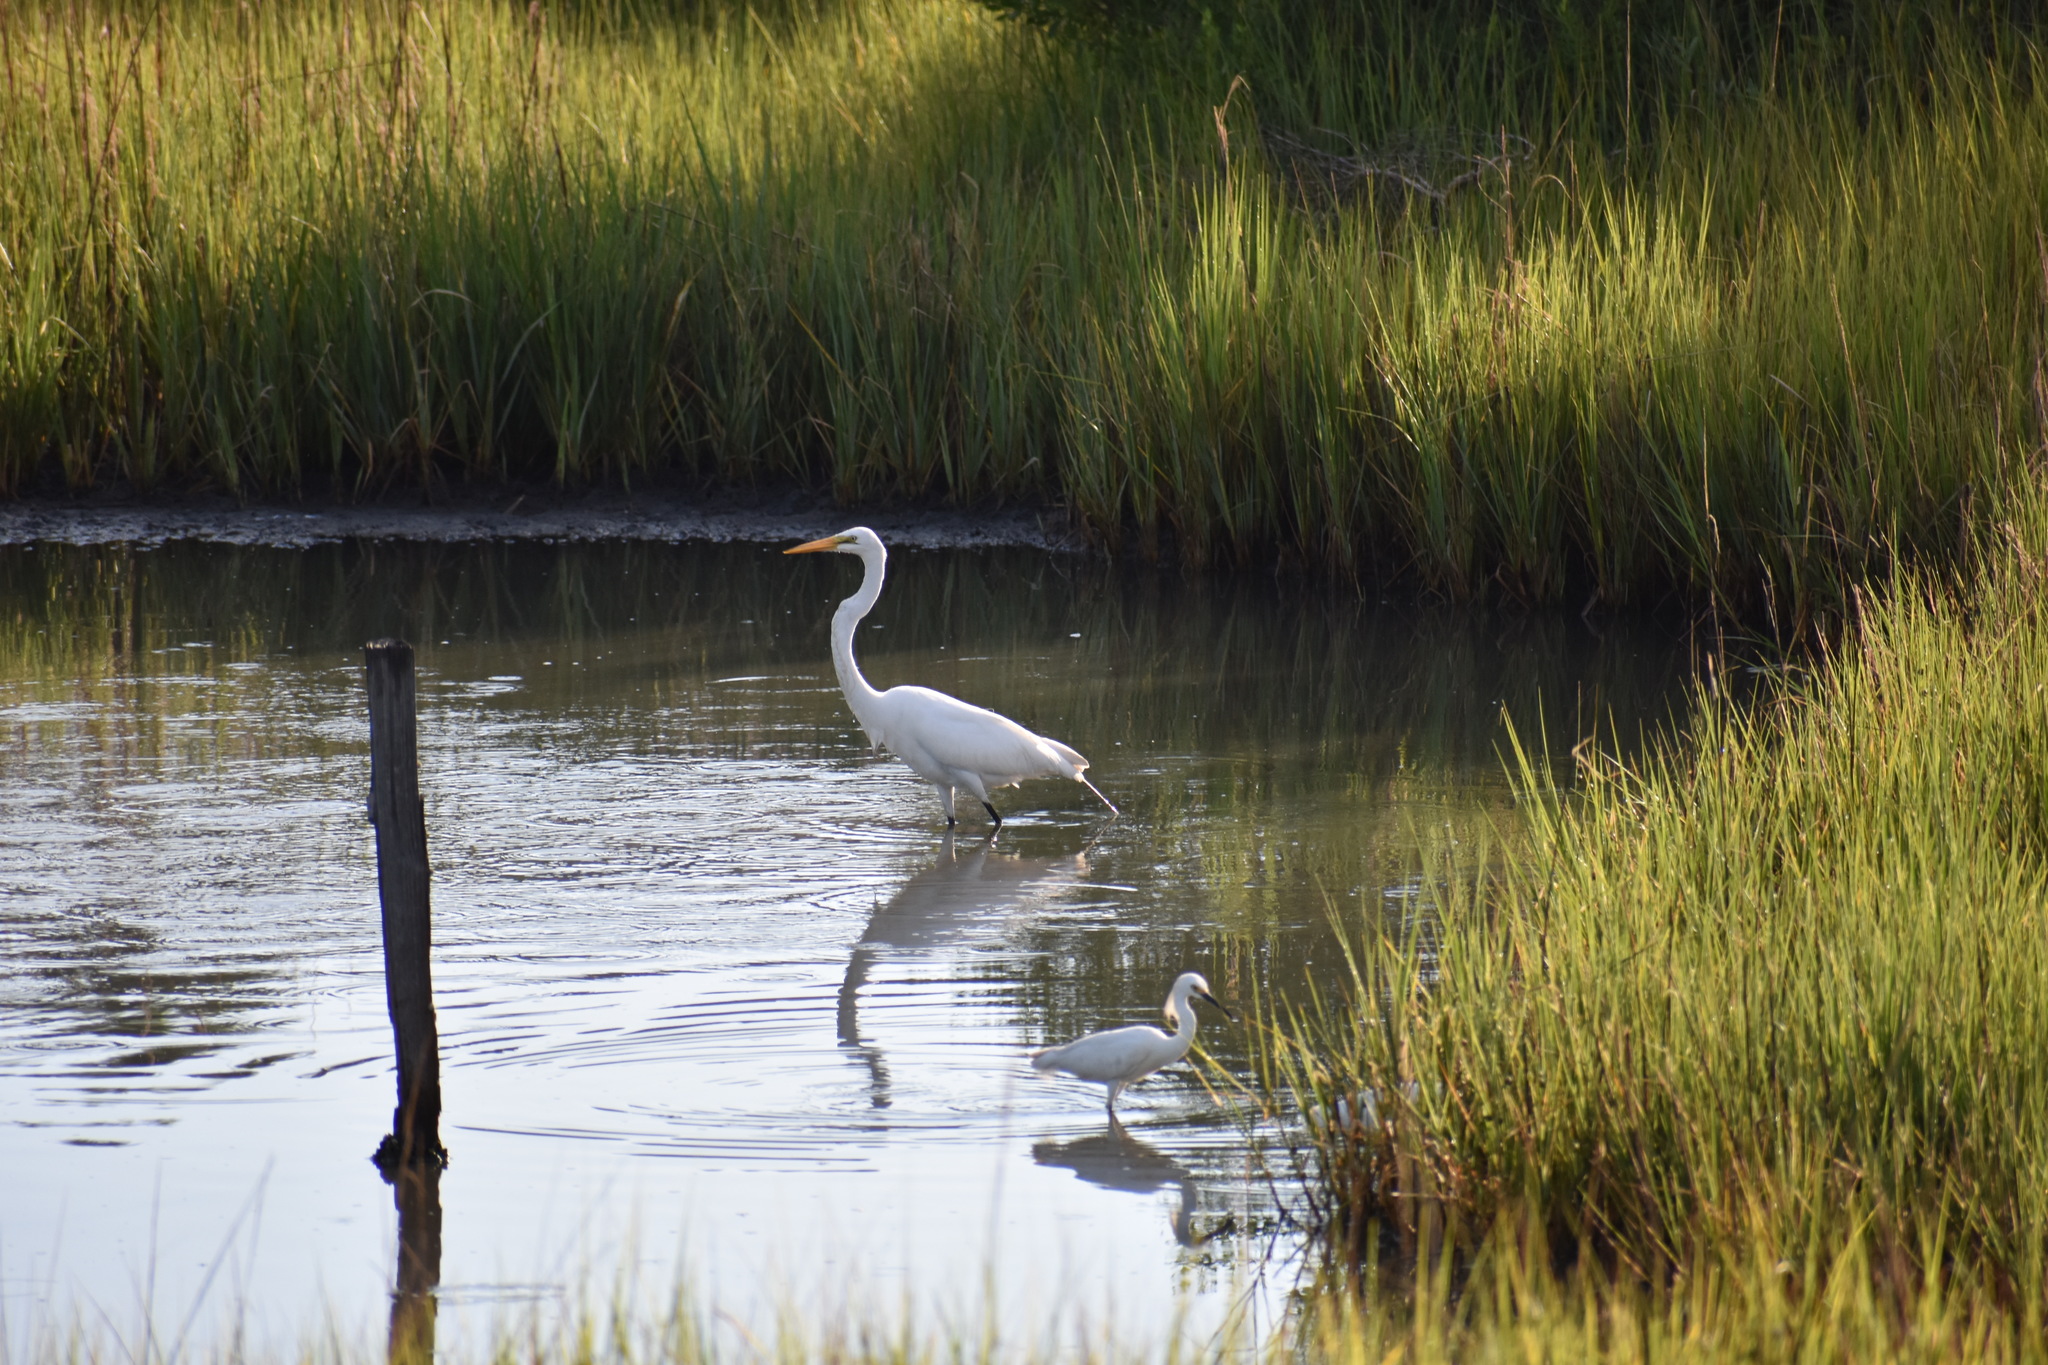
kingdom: Animalia
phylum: Chordata
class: Aves
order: Pelecaniformes
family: Ardeidae
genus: Egretta
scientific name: Egretta thula
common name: Snowy egret
